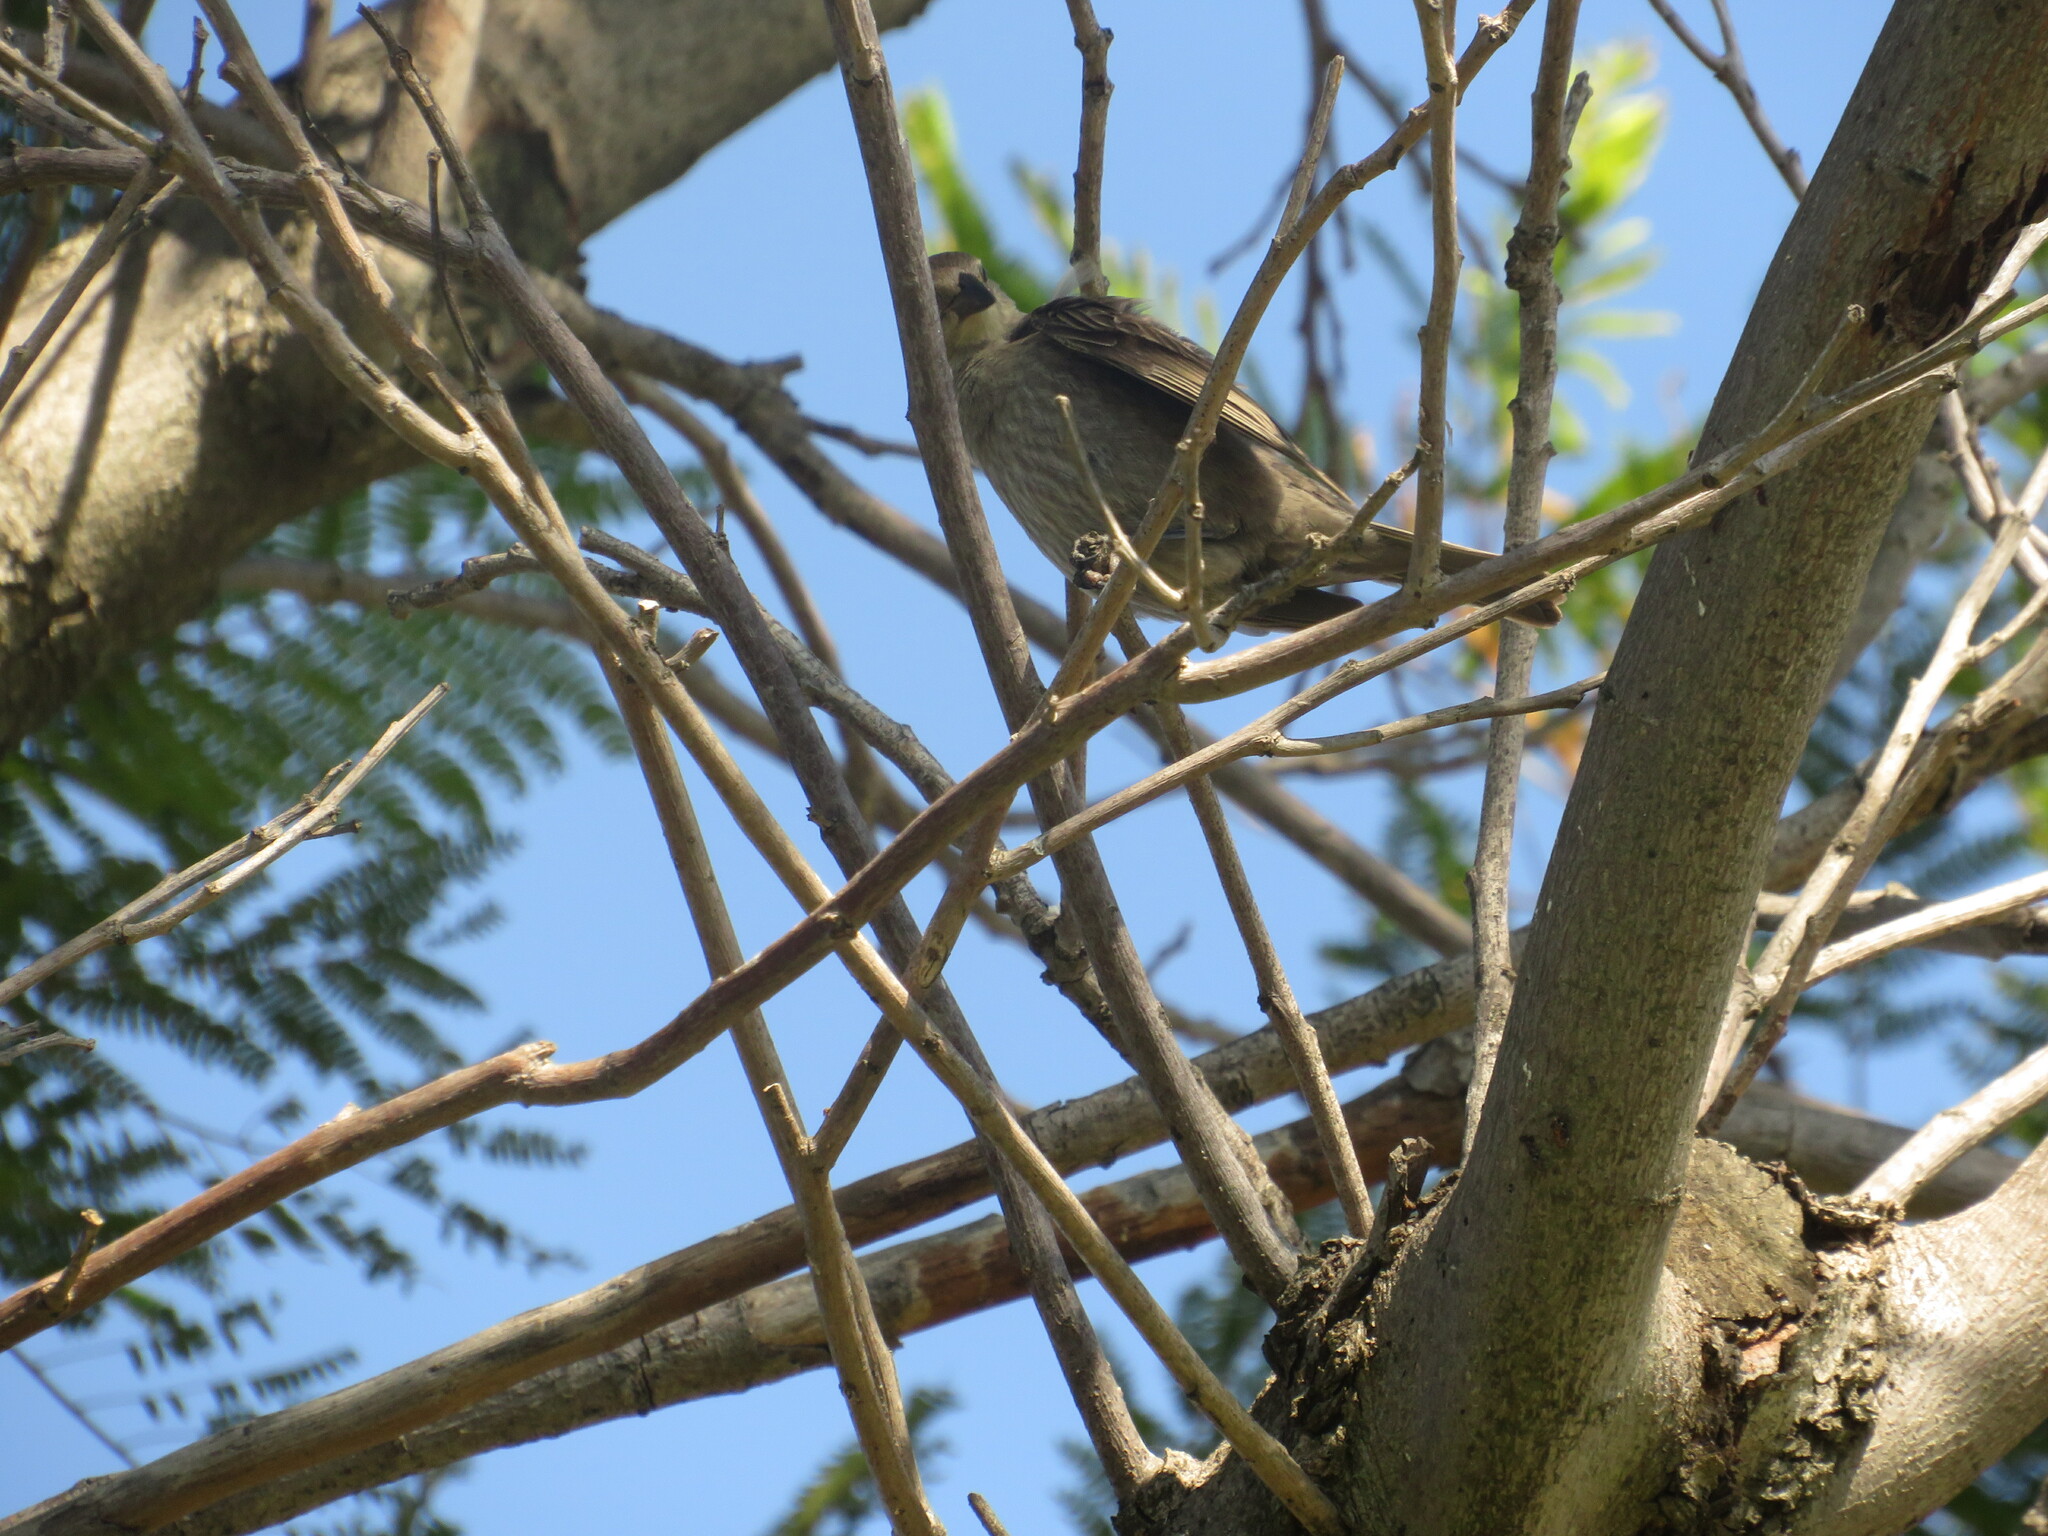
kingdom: Animalia
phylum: Chordata
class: Aves
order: Passeriformes
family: Icteridae
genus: Molothrus
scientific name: Molothrus bonariensis
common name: Shiny cowbird
